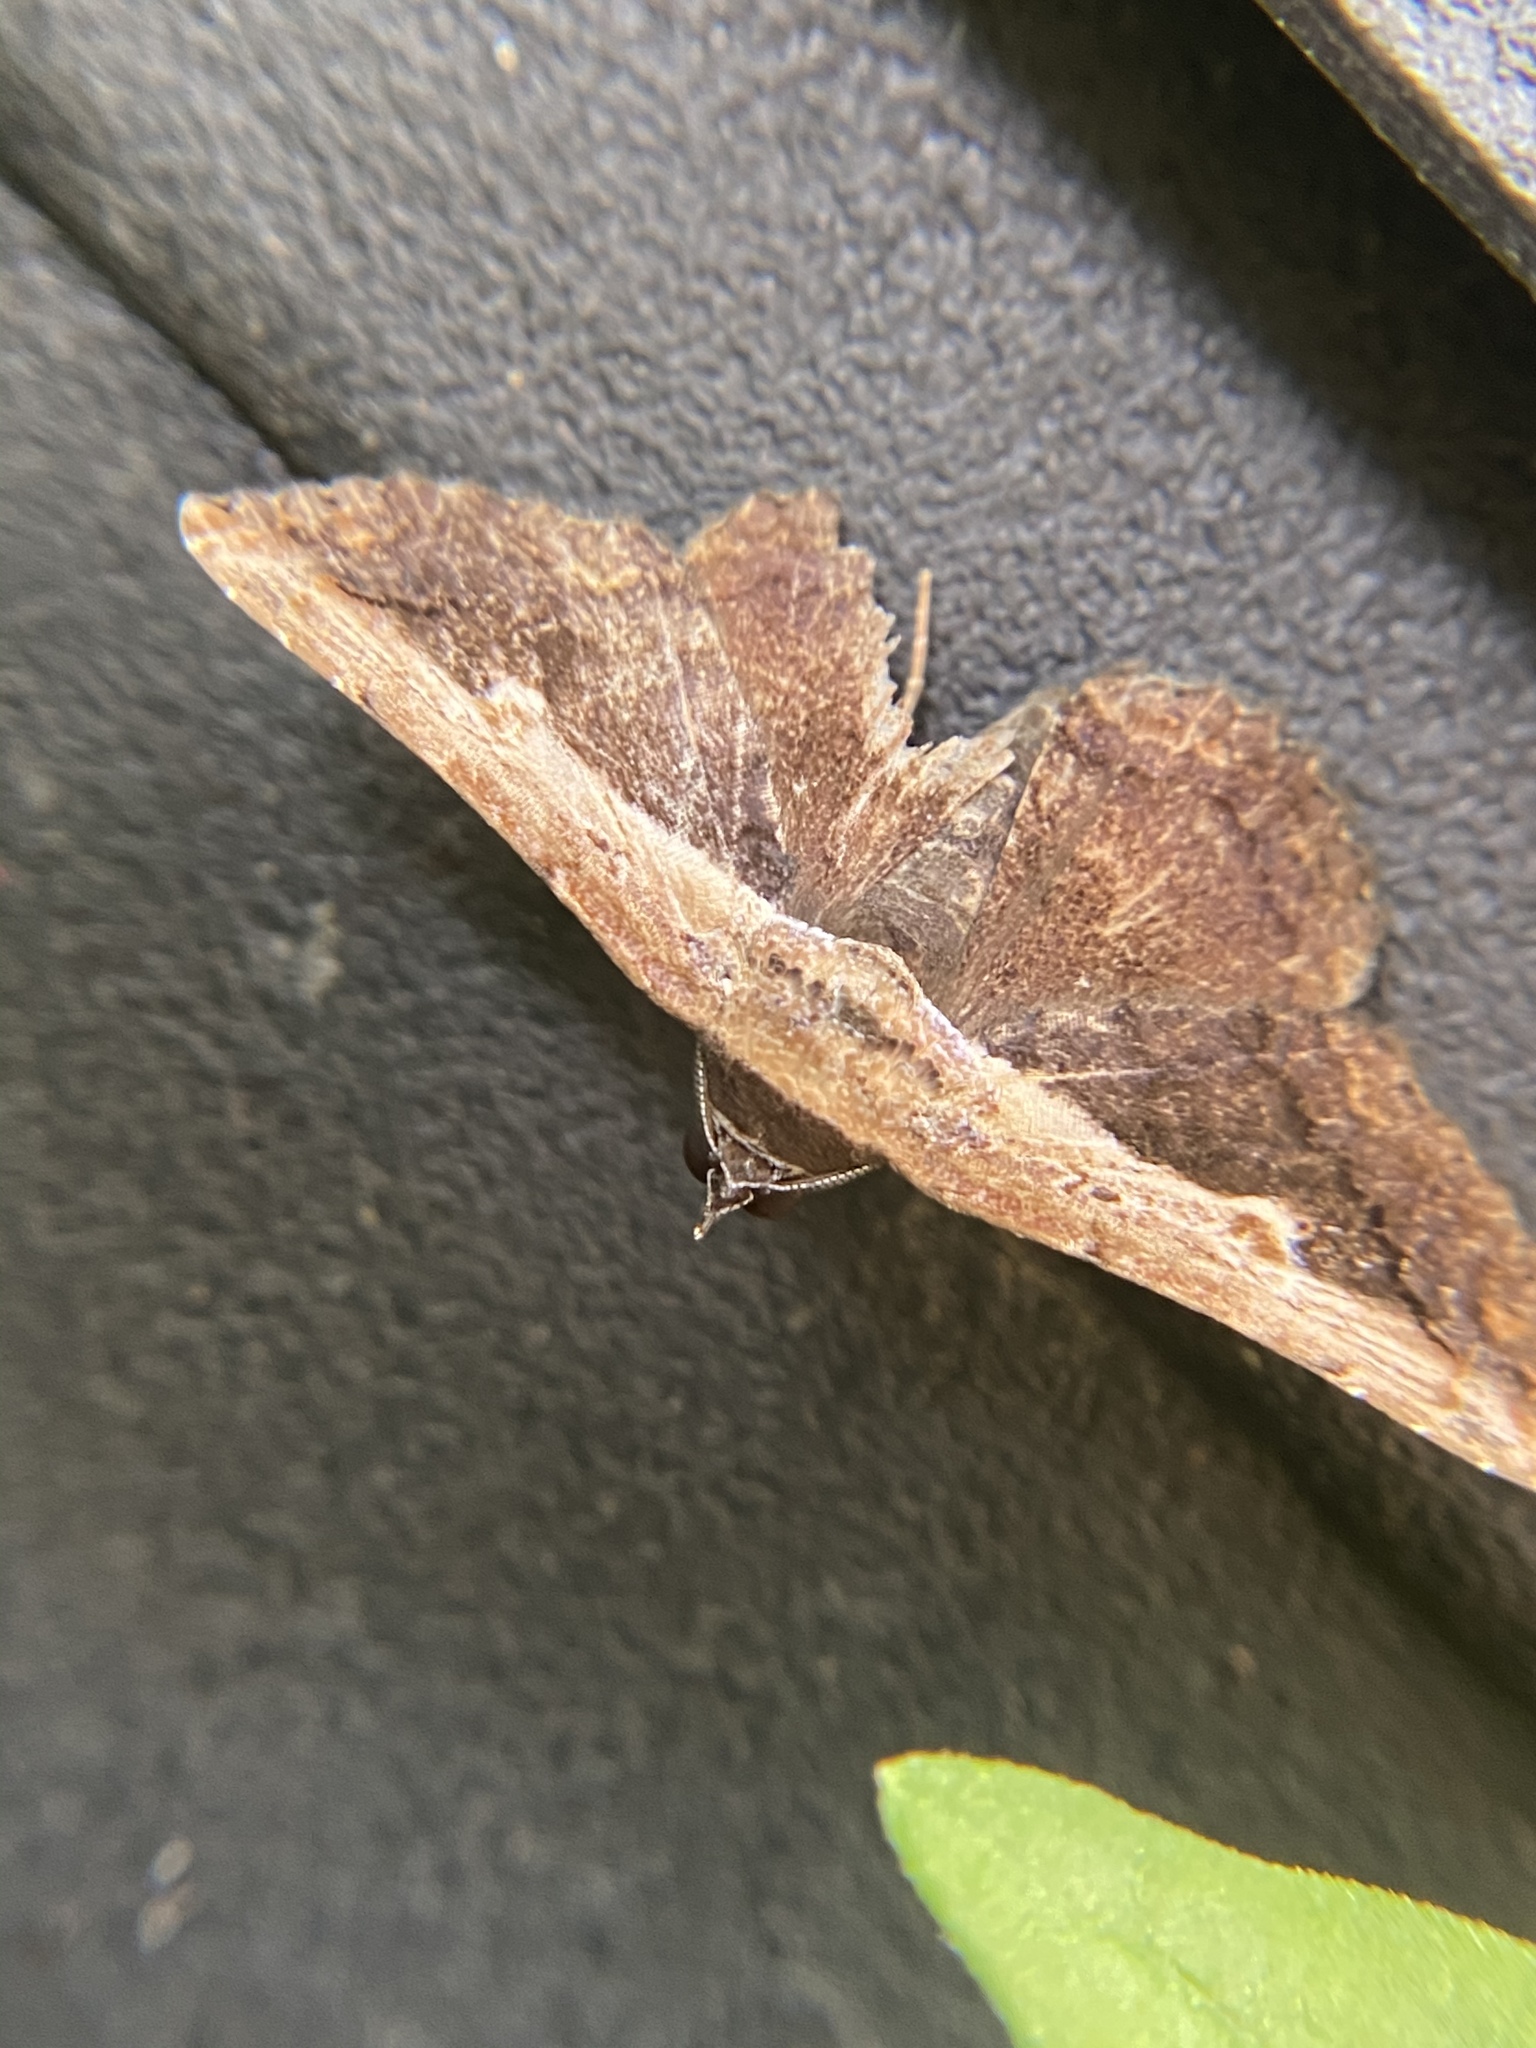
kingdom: Animalia
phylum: Arthropoda
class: Insecta
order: Lepidoptera
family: Erebidae
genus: Selenisa
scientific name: Selenisa sueroides
